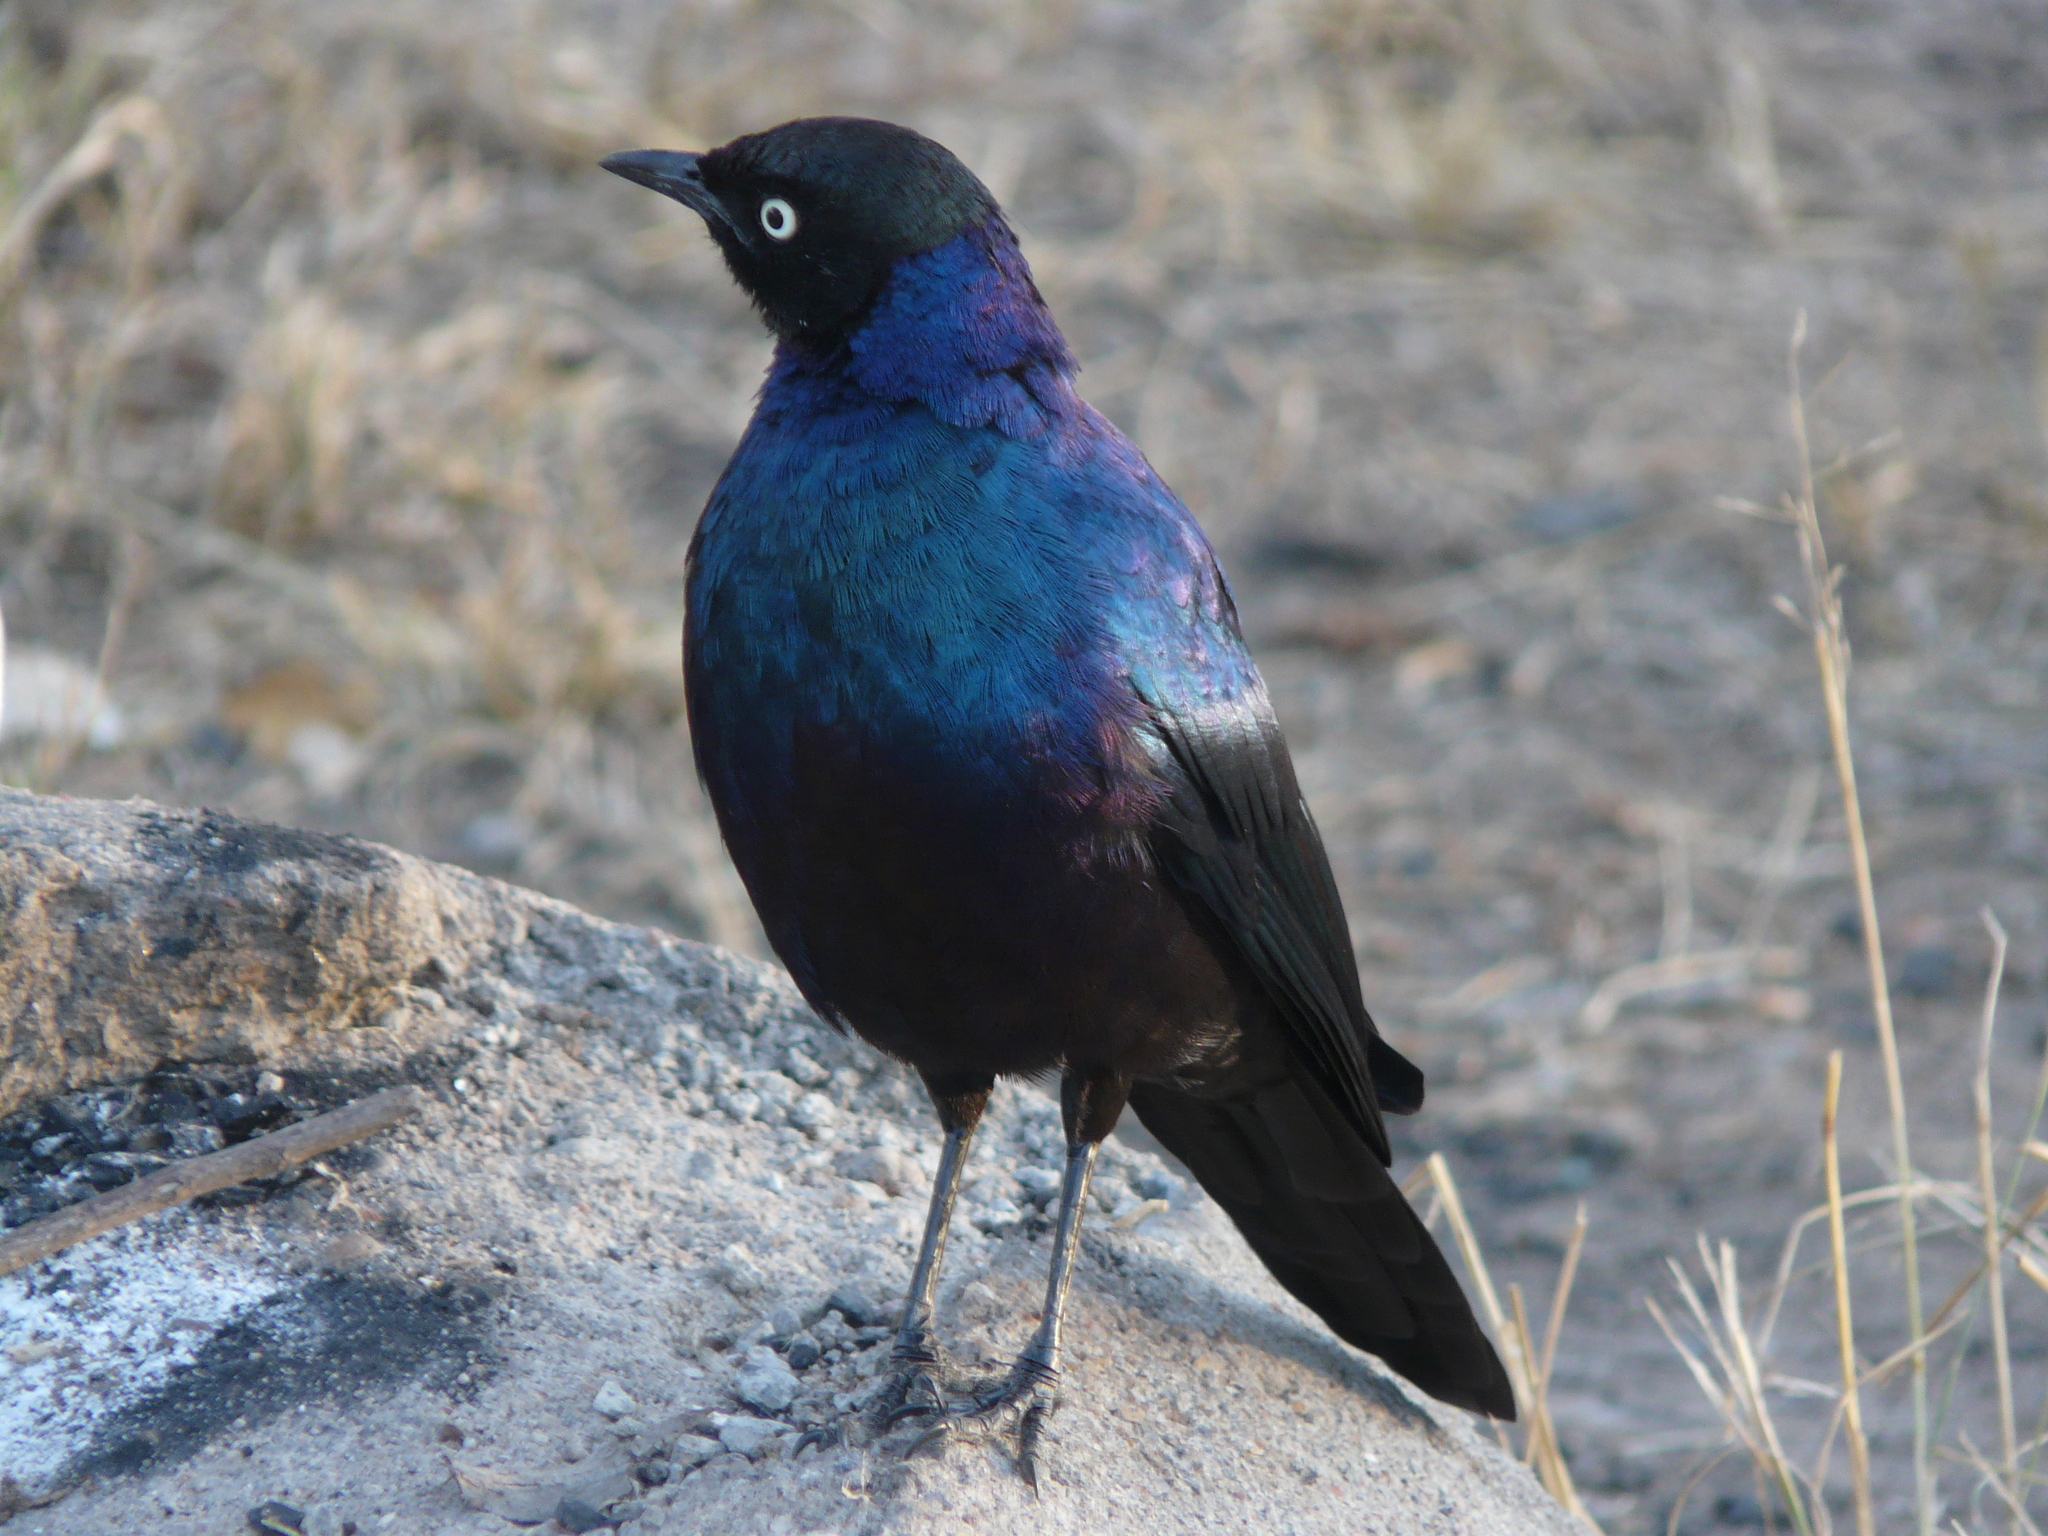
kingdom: Animalia
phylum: Chordata
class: Aves
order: Passeriformes
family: Sturnidae
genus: Lamprotornis
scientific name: Lamprotornis purpuroptera
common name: Rüppell's starling
